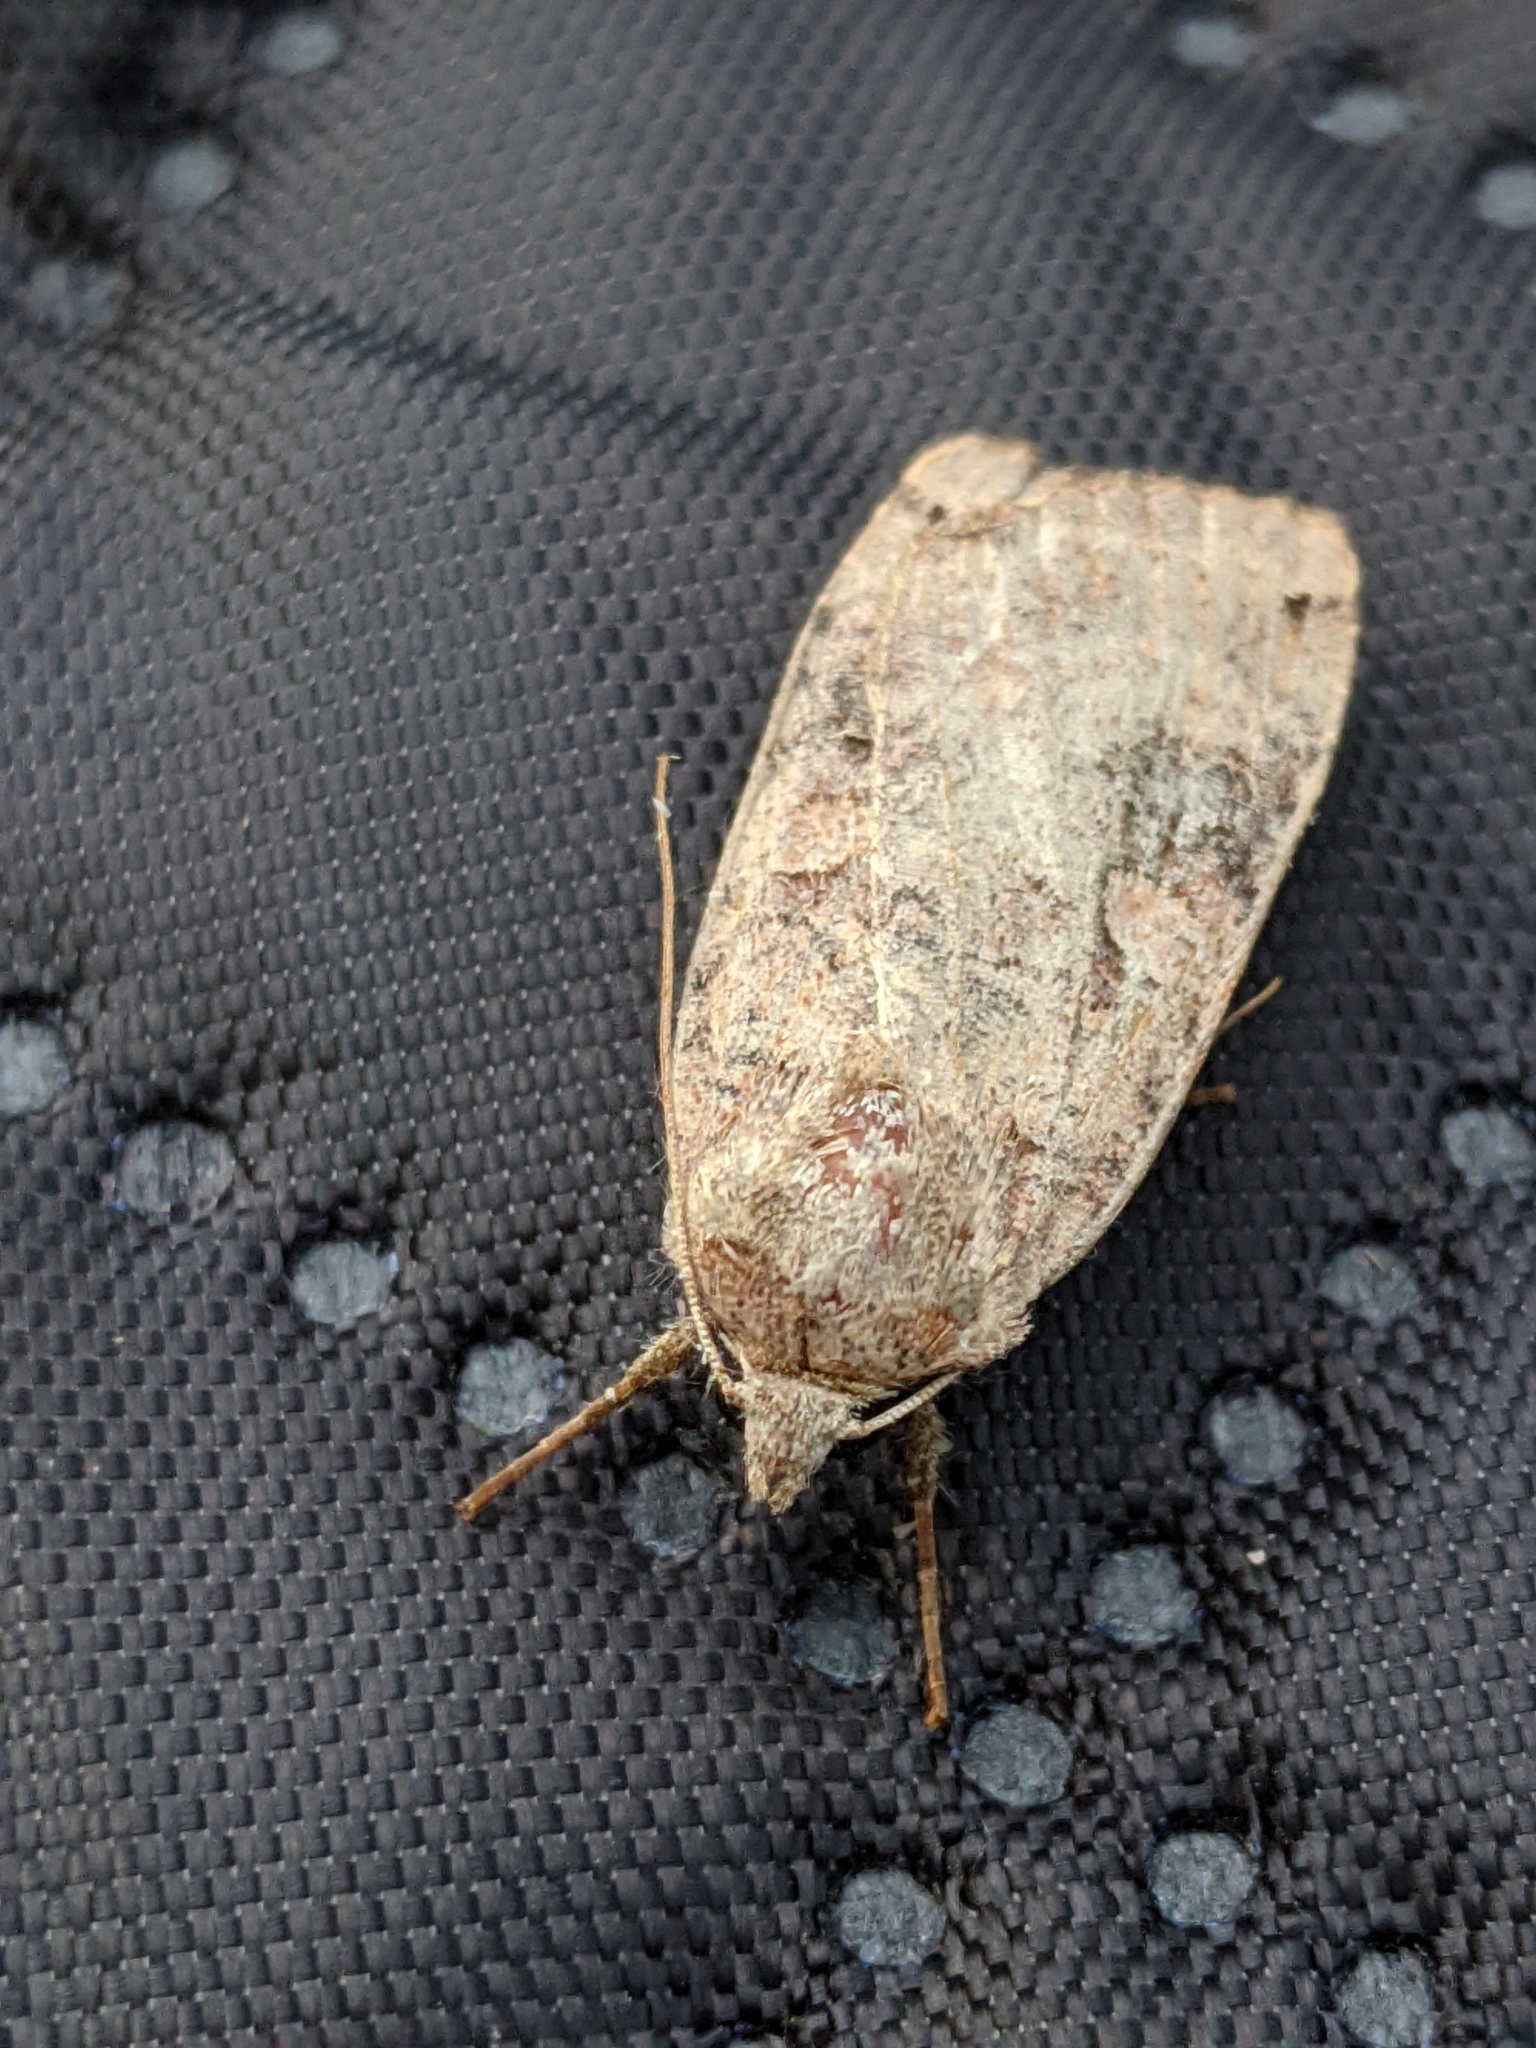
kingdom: Animalia
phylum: Arthropoda
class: Insecta
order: Lepidoptera
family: Noctuidae
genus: Noctua
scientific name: Noctua pronuba
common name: Large yellow underwing
